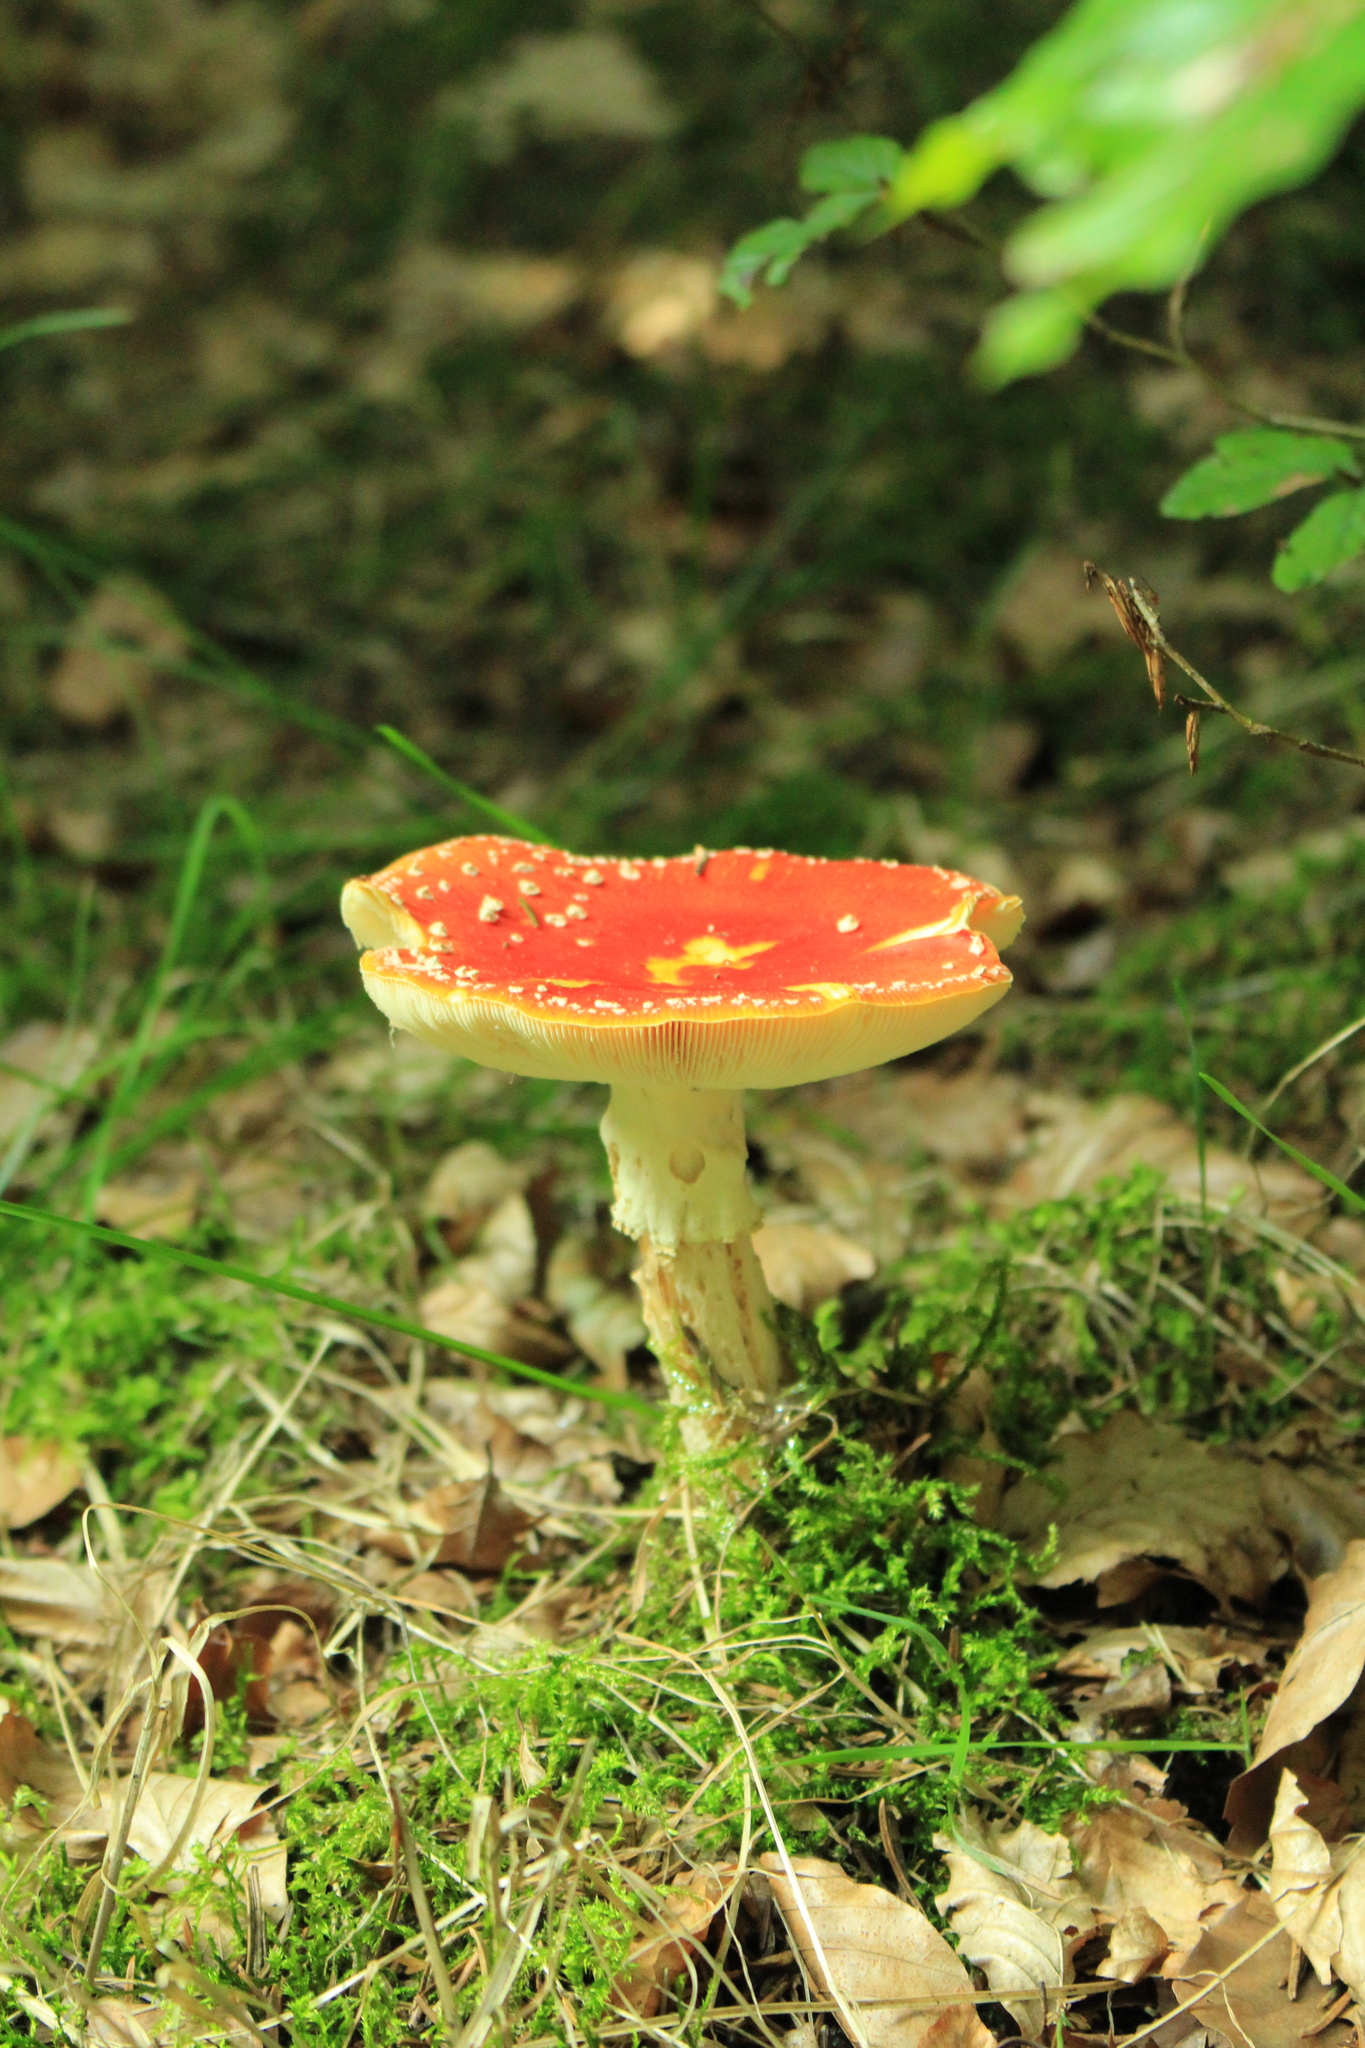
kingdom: Fungi
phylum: Basidiomycota
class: Agaricomycetes
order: Agaricales
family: Amanitaceae
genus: Amanita
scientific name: Amanita muscaria
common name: Fly agaric
